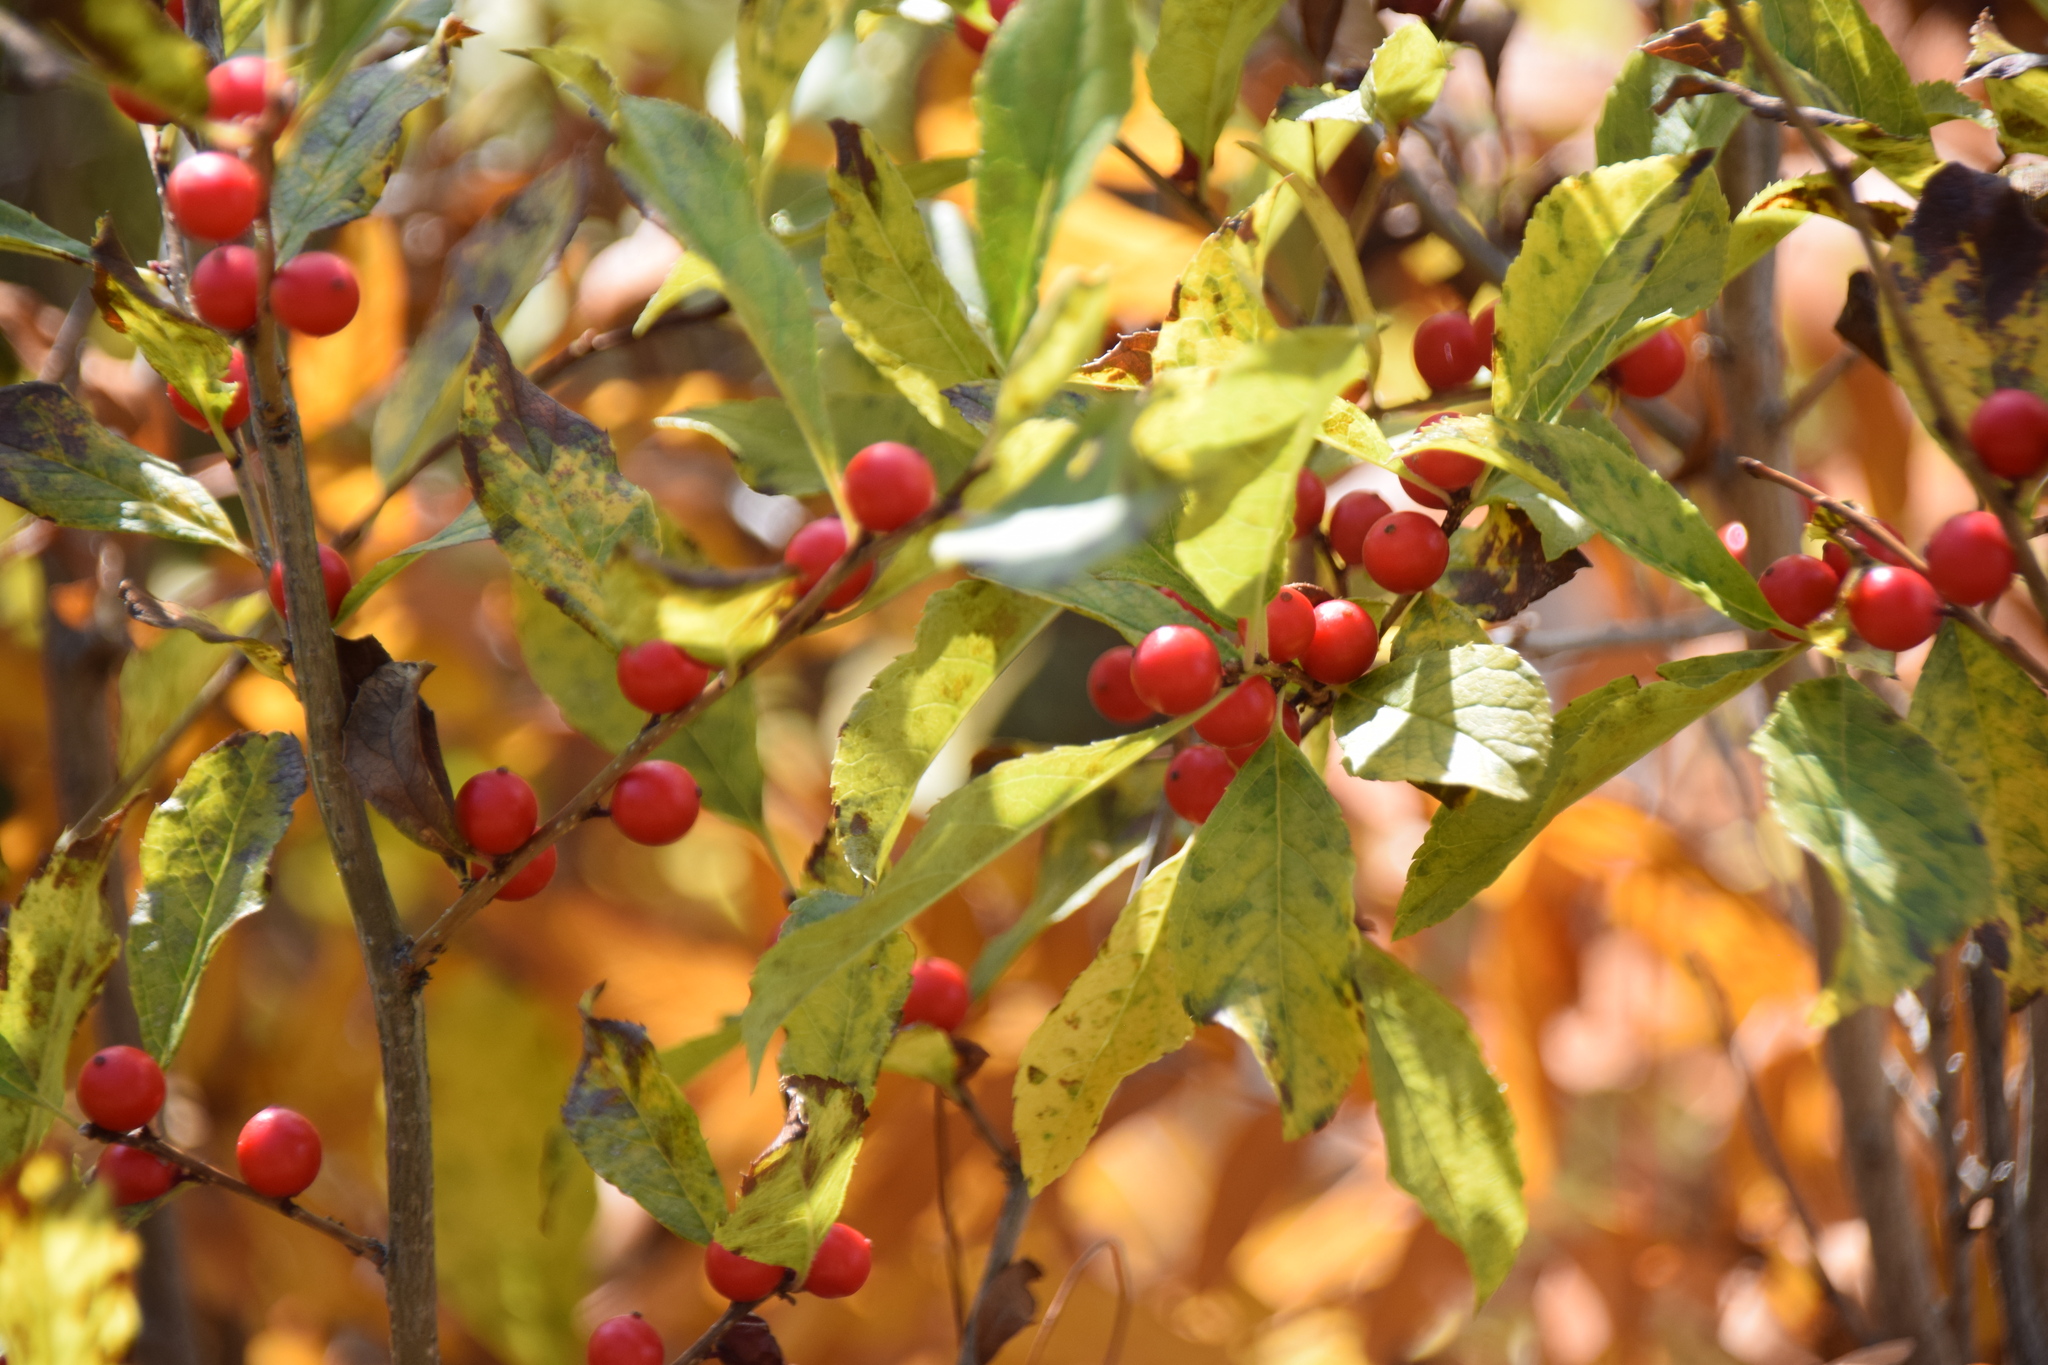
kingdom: Plantae
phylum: Tracheophyta
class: Magnoliopsida
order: Aquifoliales
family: Aquifoliaceae
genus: Ilex
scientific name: Ilex verticillata
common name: Virginia winterberry
